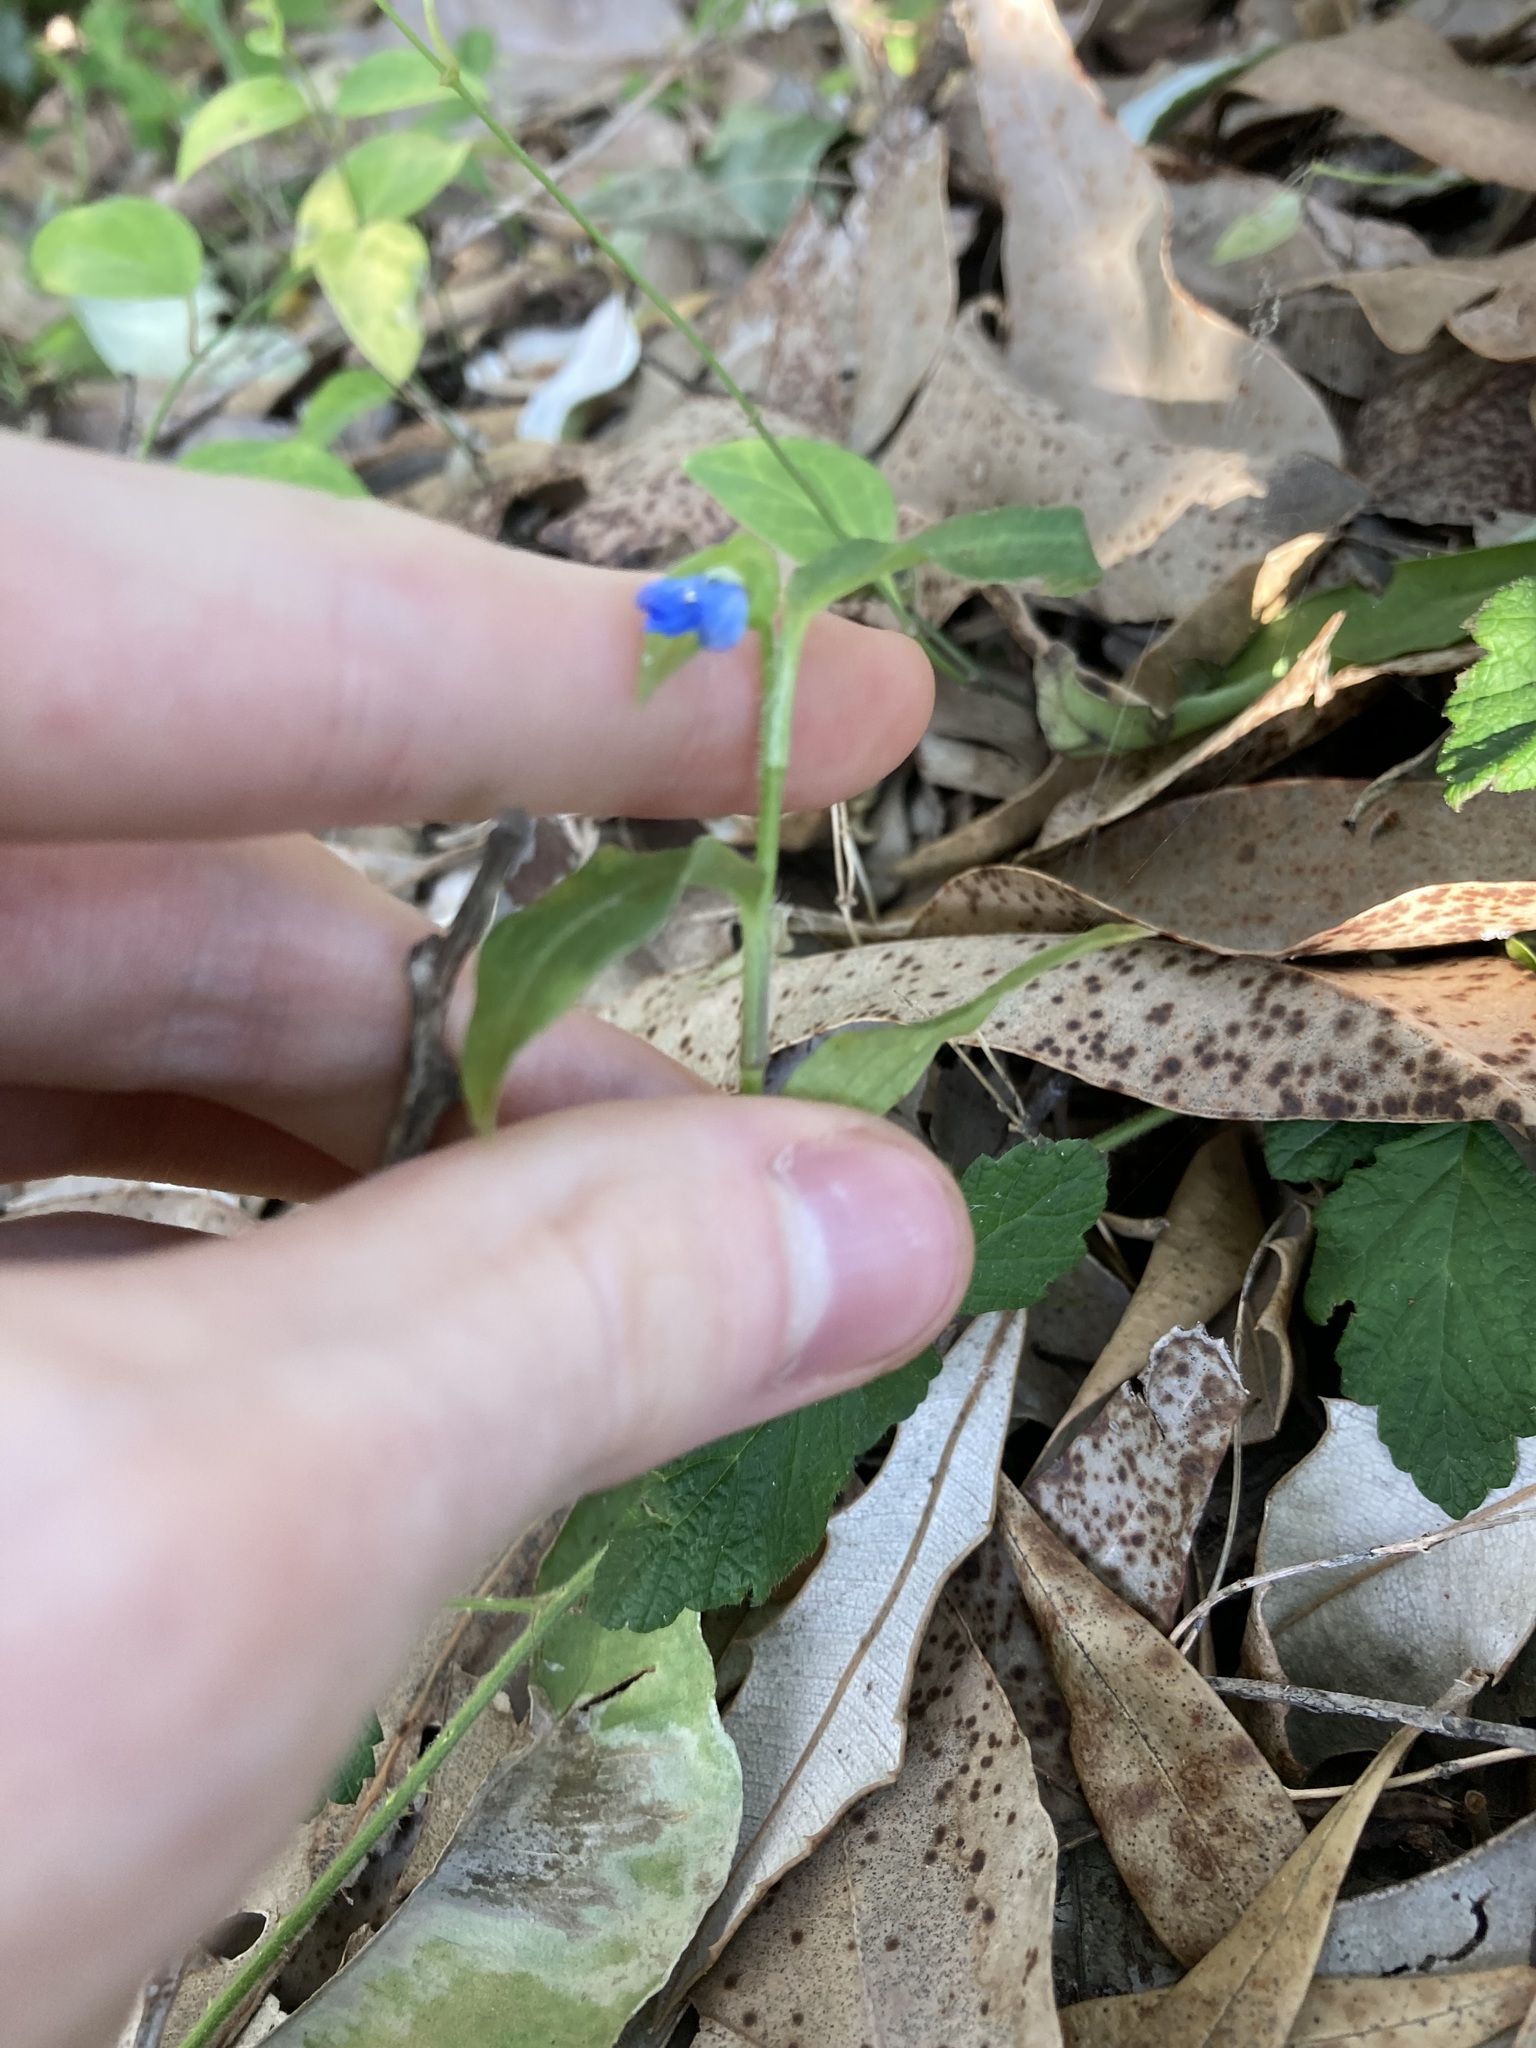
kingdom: Plantae
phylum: Tracheophyta
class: Liliopsida
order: Commelinales
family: Commelinaceae
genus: Commelina
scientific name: Commelina cyanea
